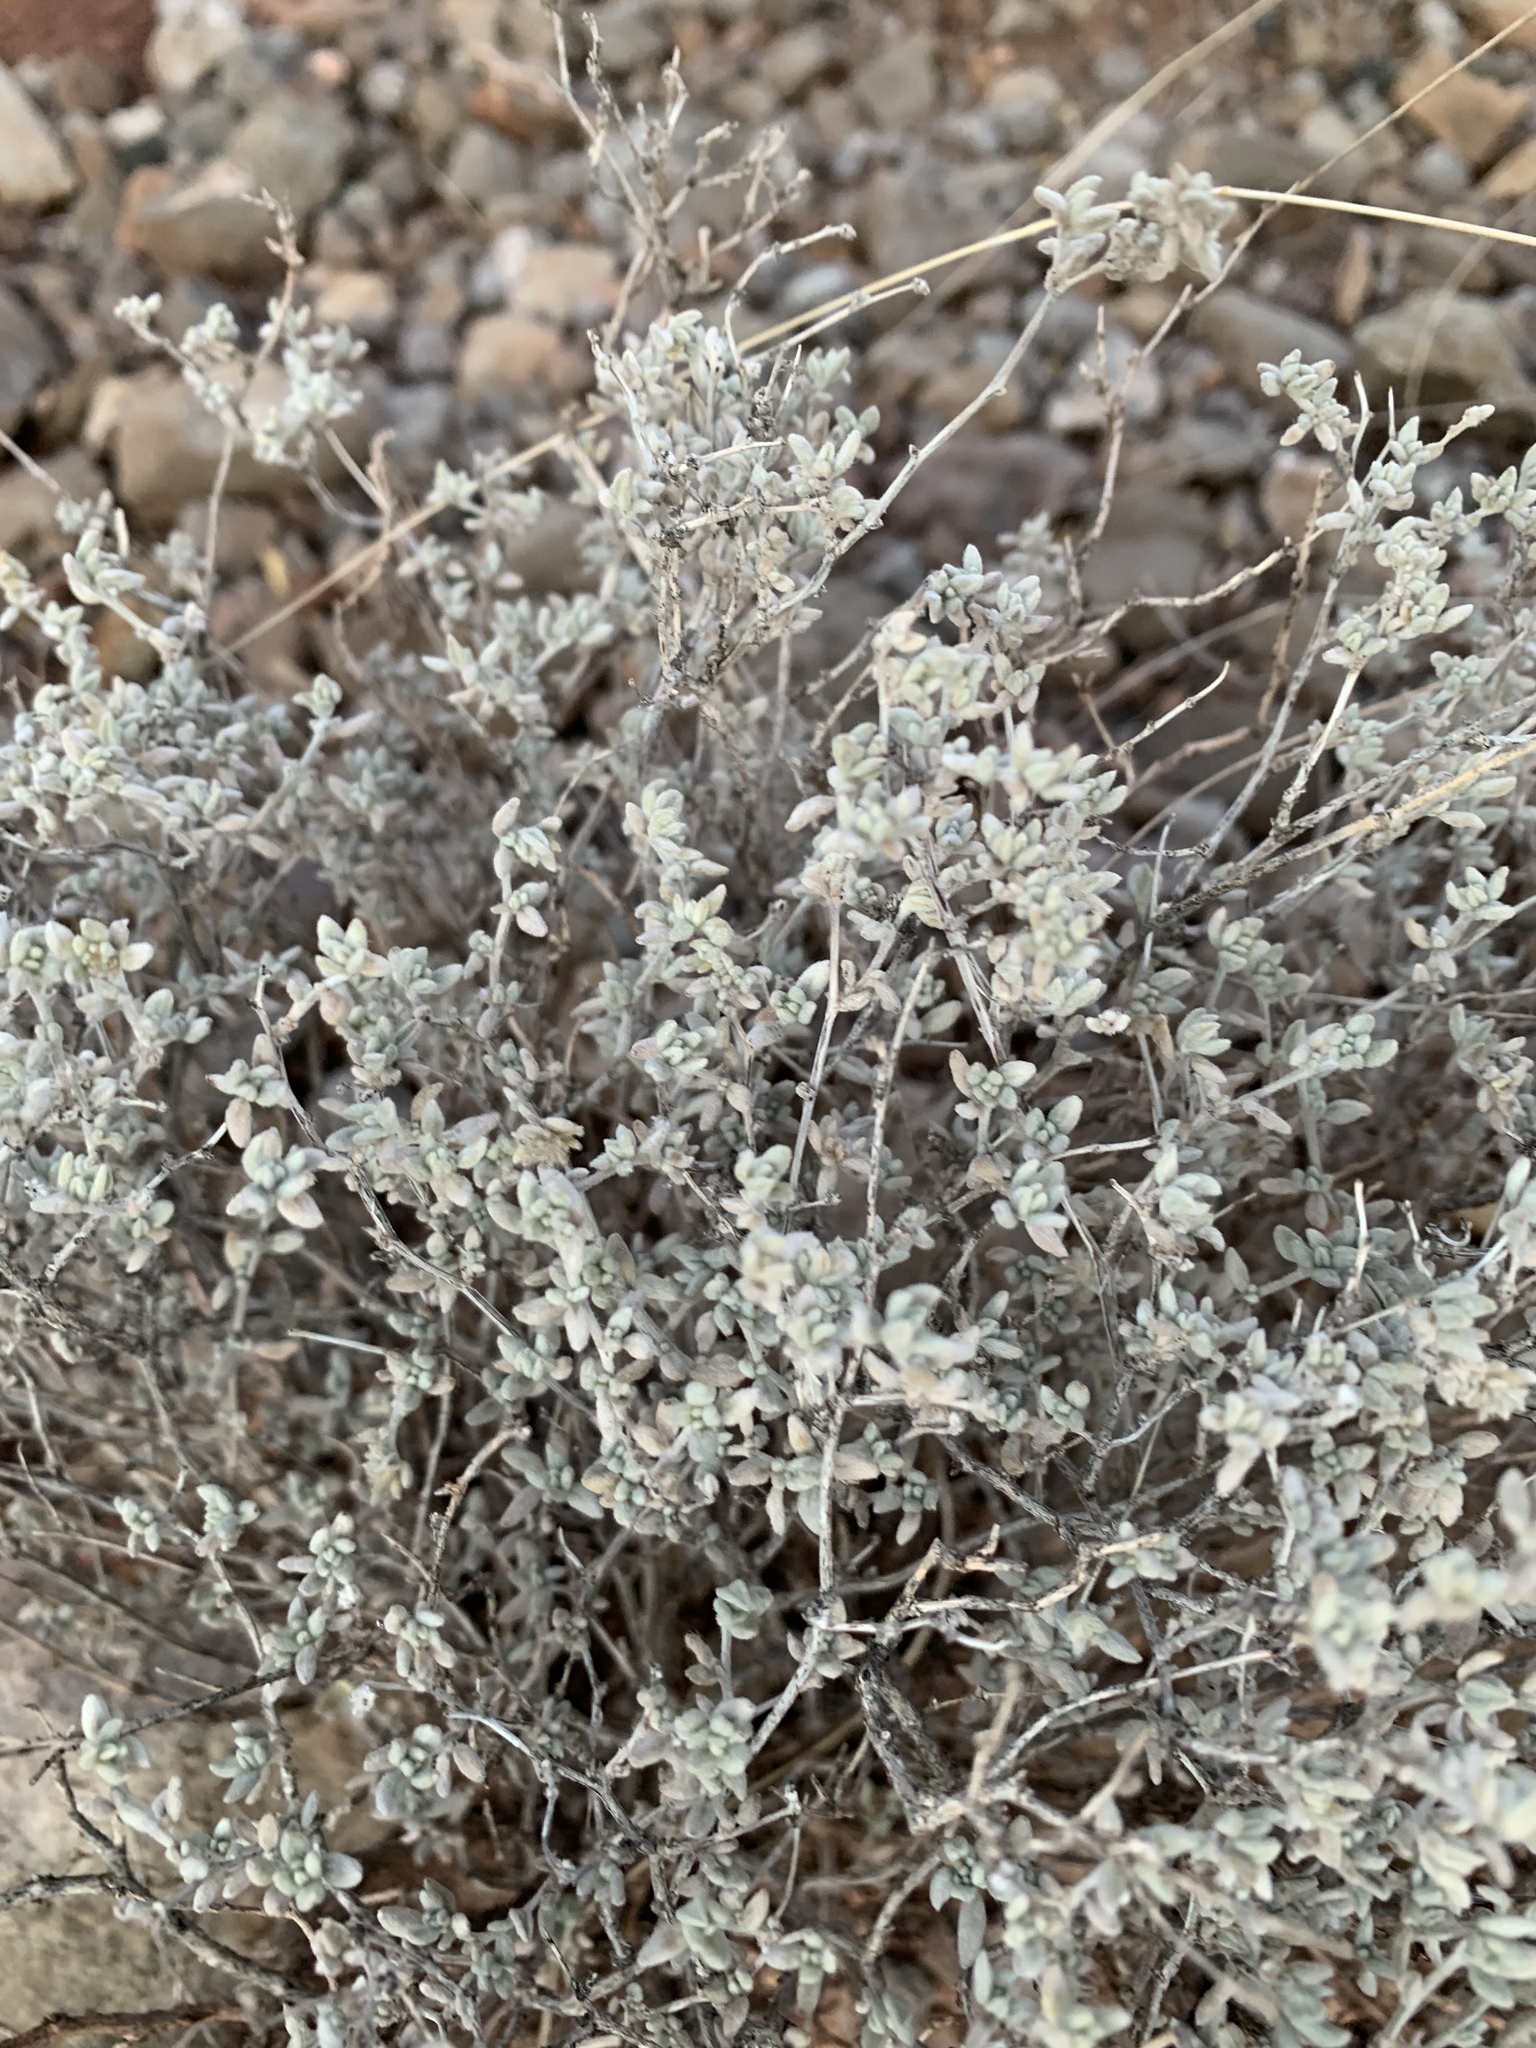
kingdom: Plantae
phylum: Tracheophyta
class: Magnoliopsida
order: Boraginales
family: Ehretiaceae
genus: Tiquilia
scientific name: Tiquilia greggii
